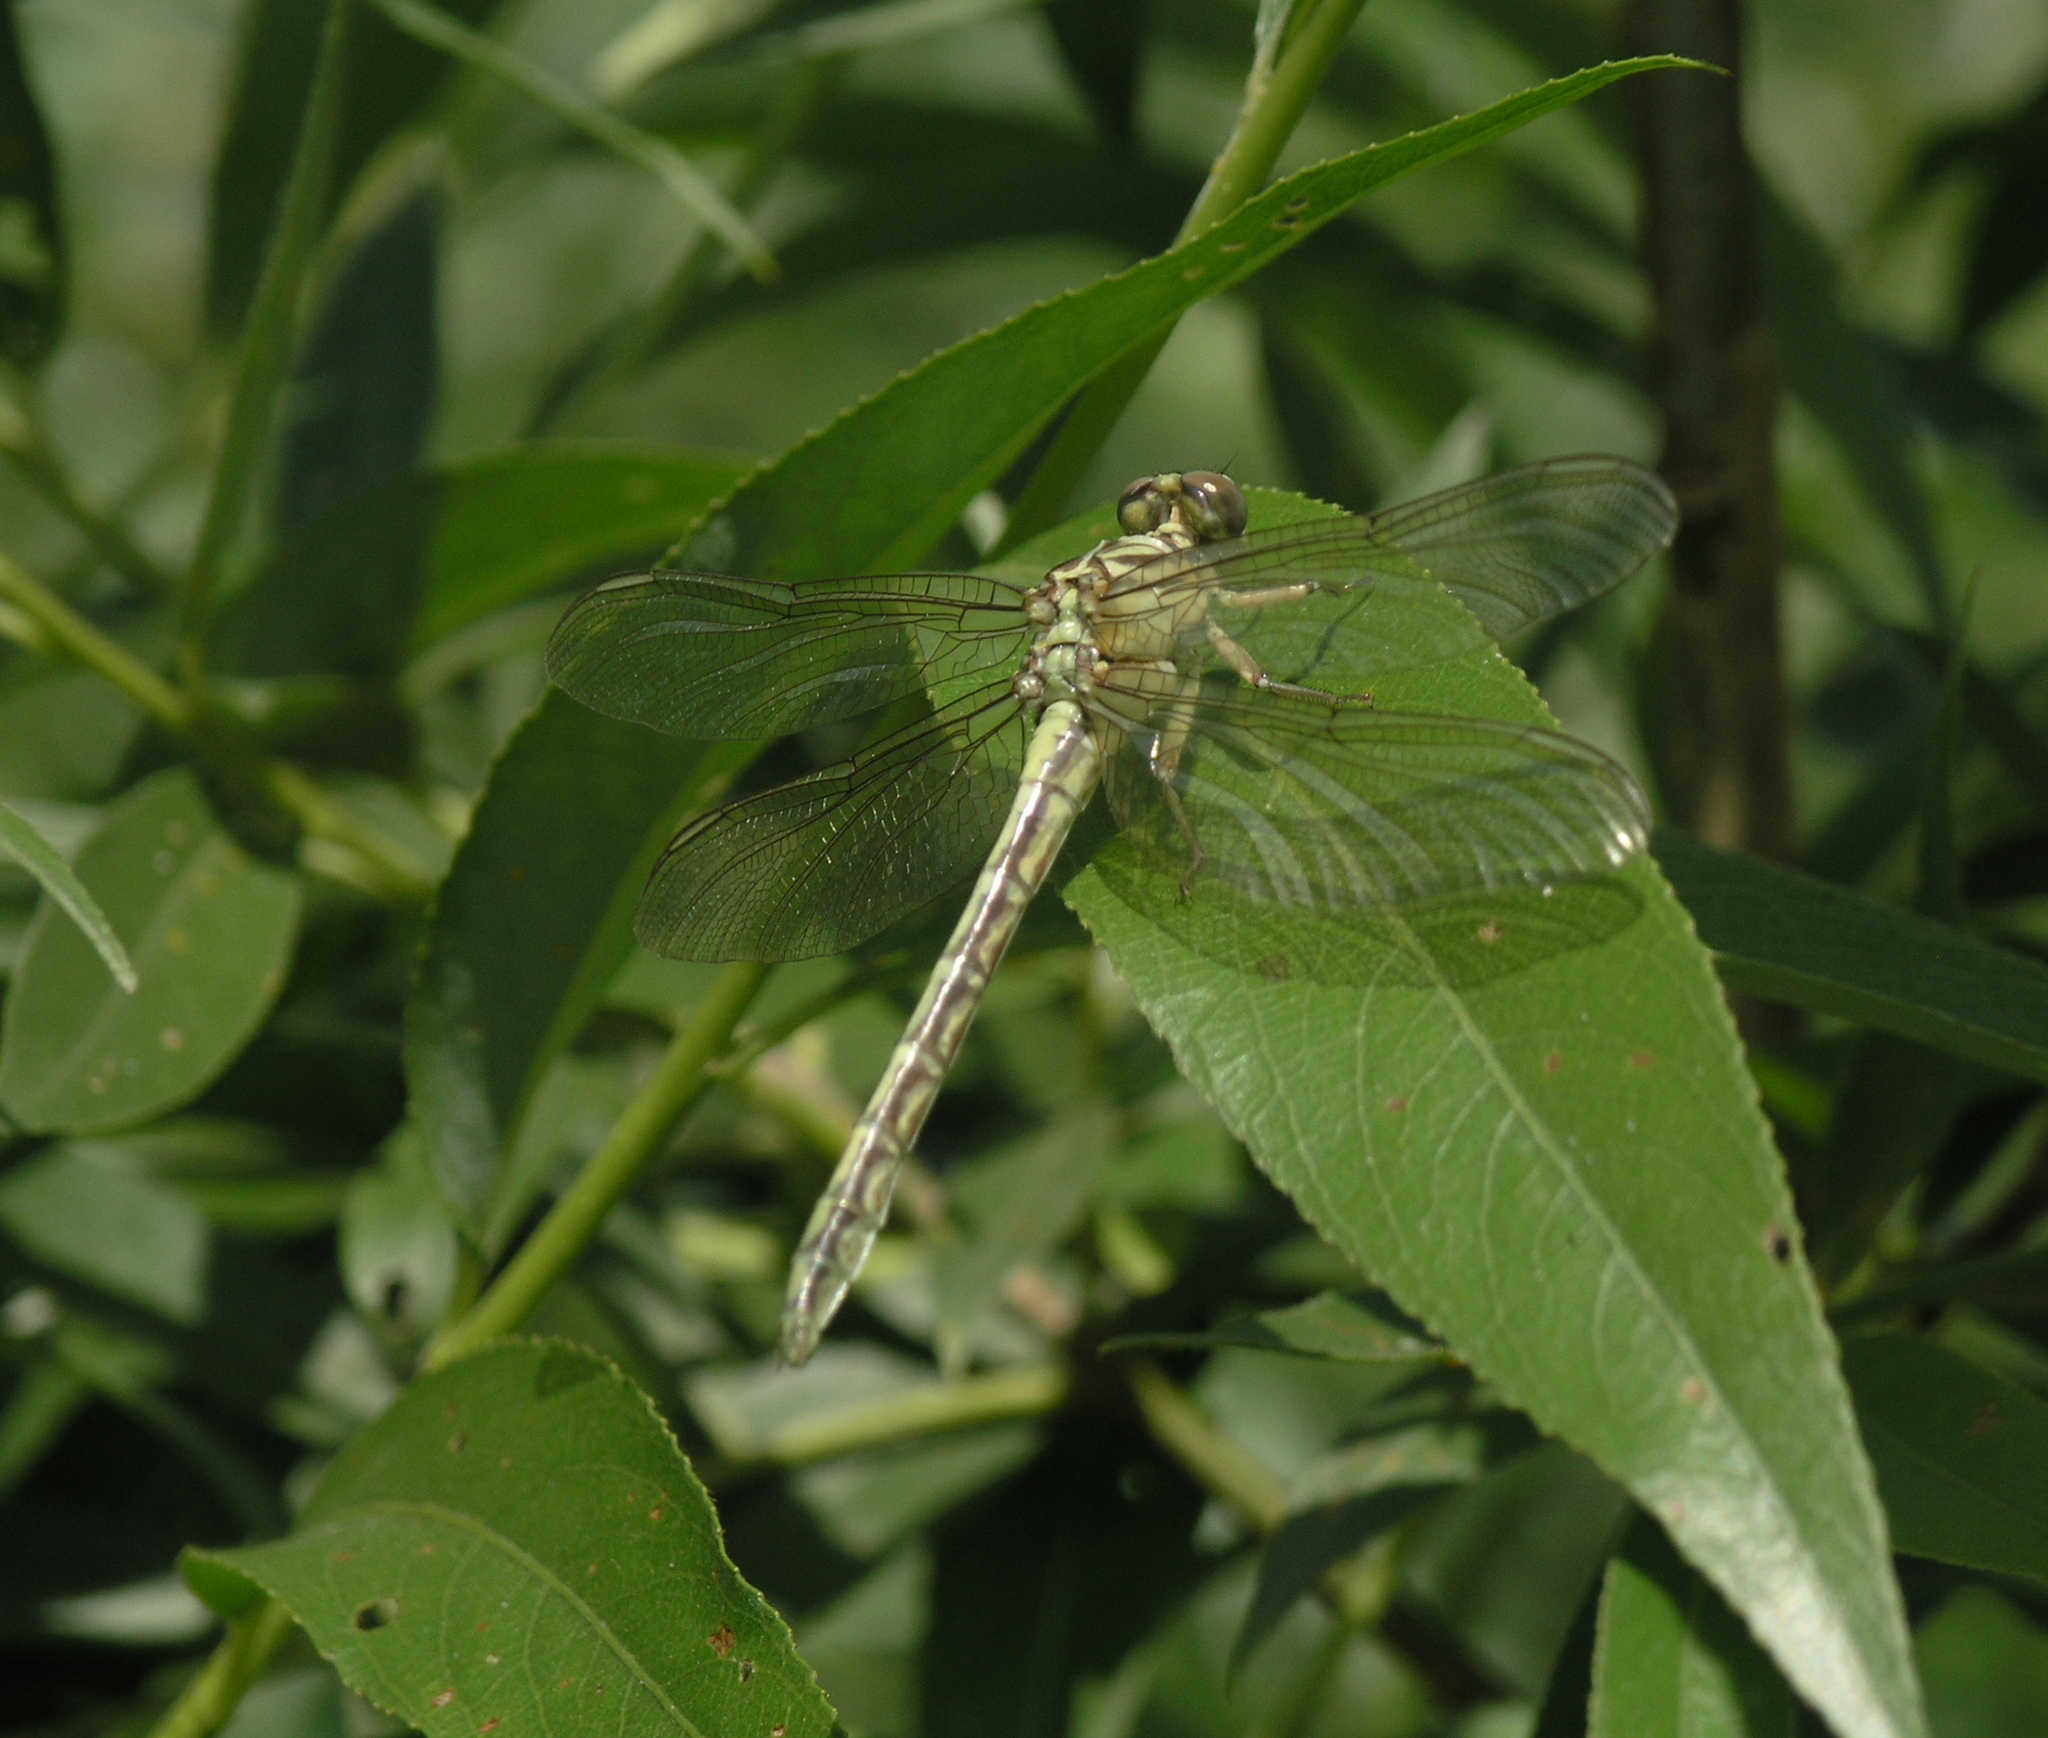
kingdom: Animalia
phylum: Arthropoda
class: Insecta
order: Odonata
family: Gomphidae
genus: Stylurus
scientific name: Stylurus flavipes
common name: River clubtail
